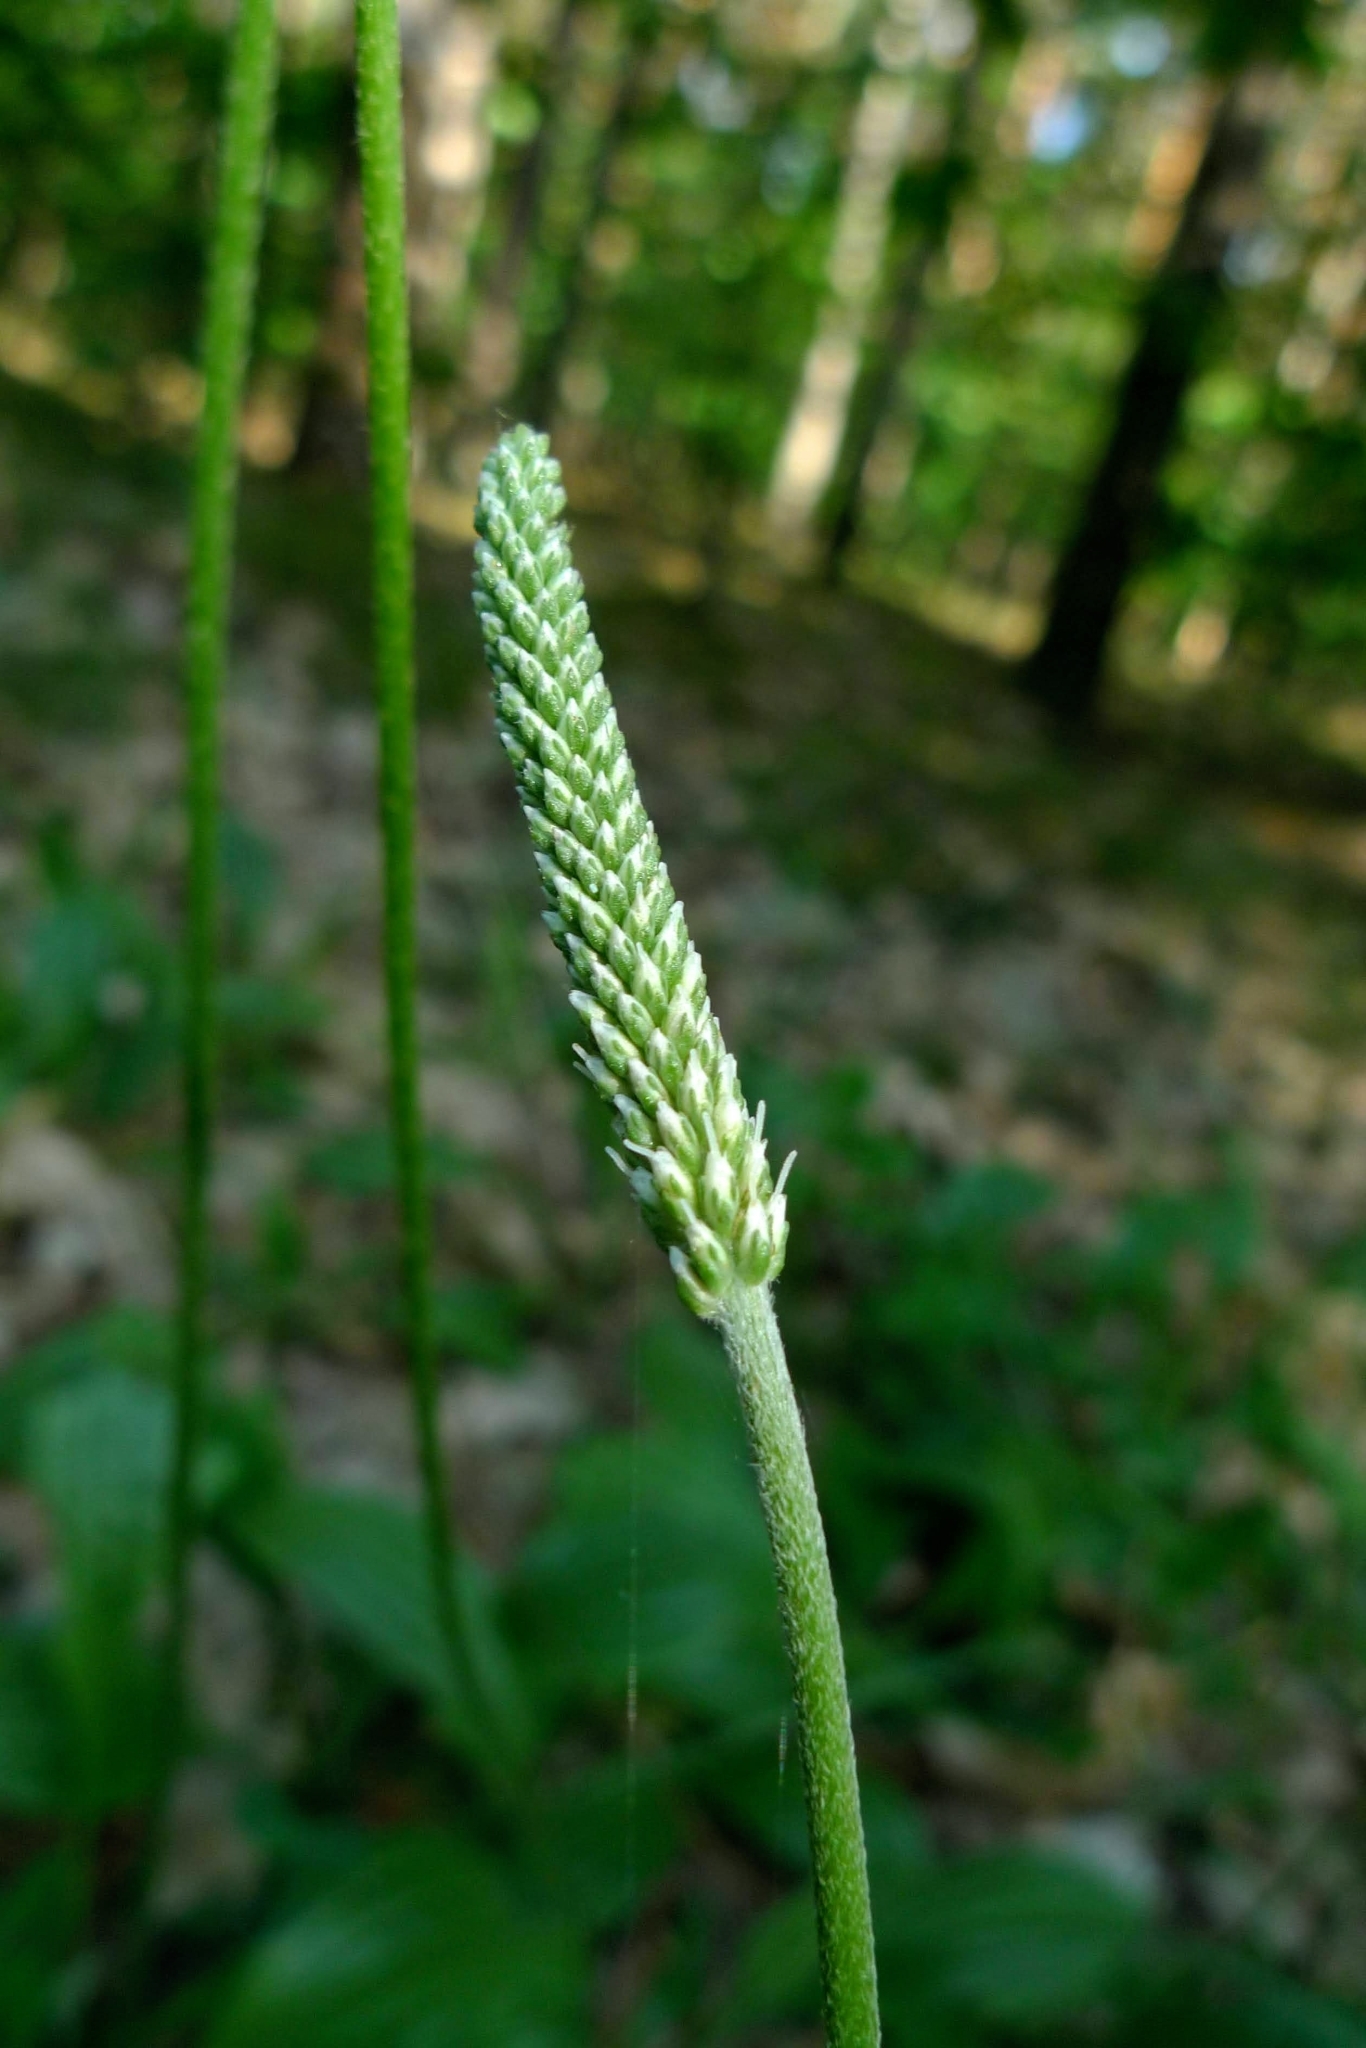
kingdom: Plantae
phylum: Tracheophyta
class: Magnoliopsida
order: Lamiales
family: Plantaginaceae
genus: Plantago
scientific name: Plantago media
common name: Hoary plantain
